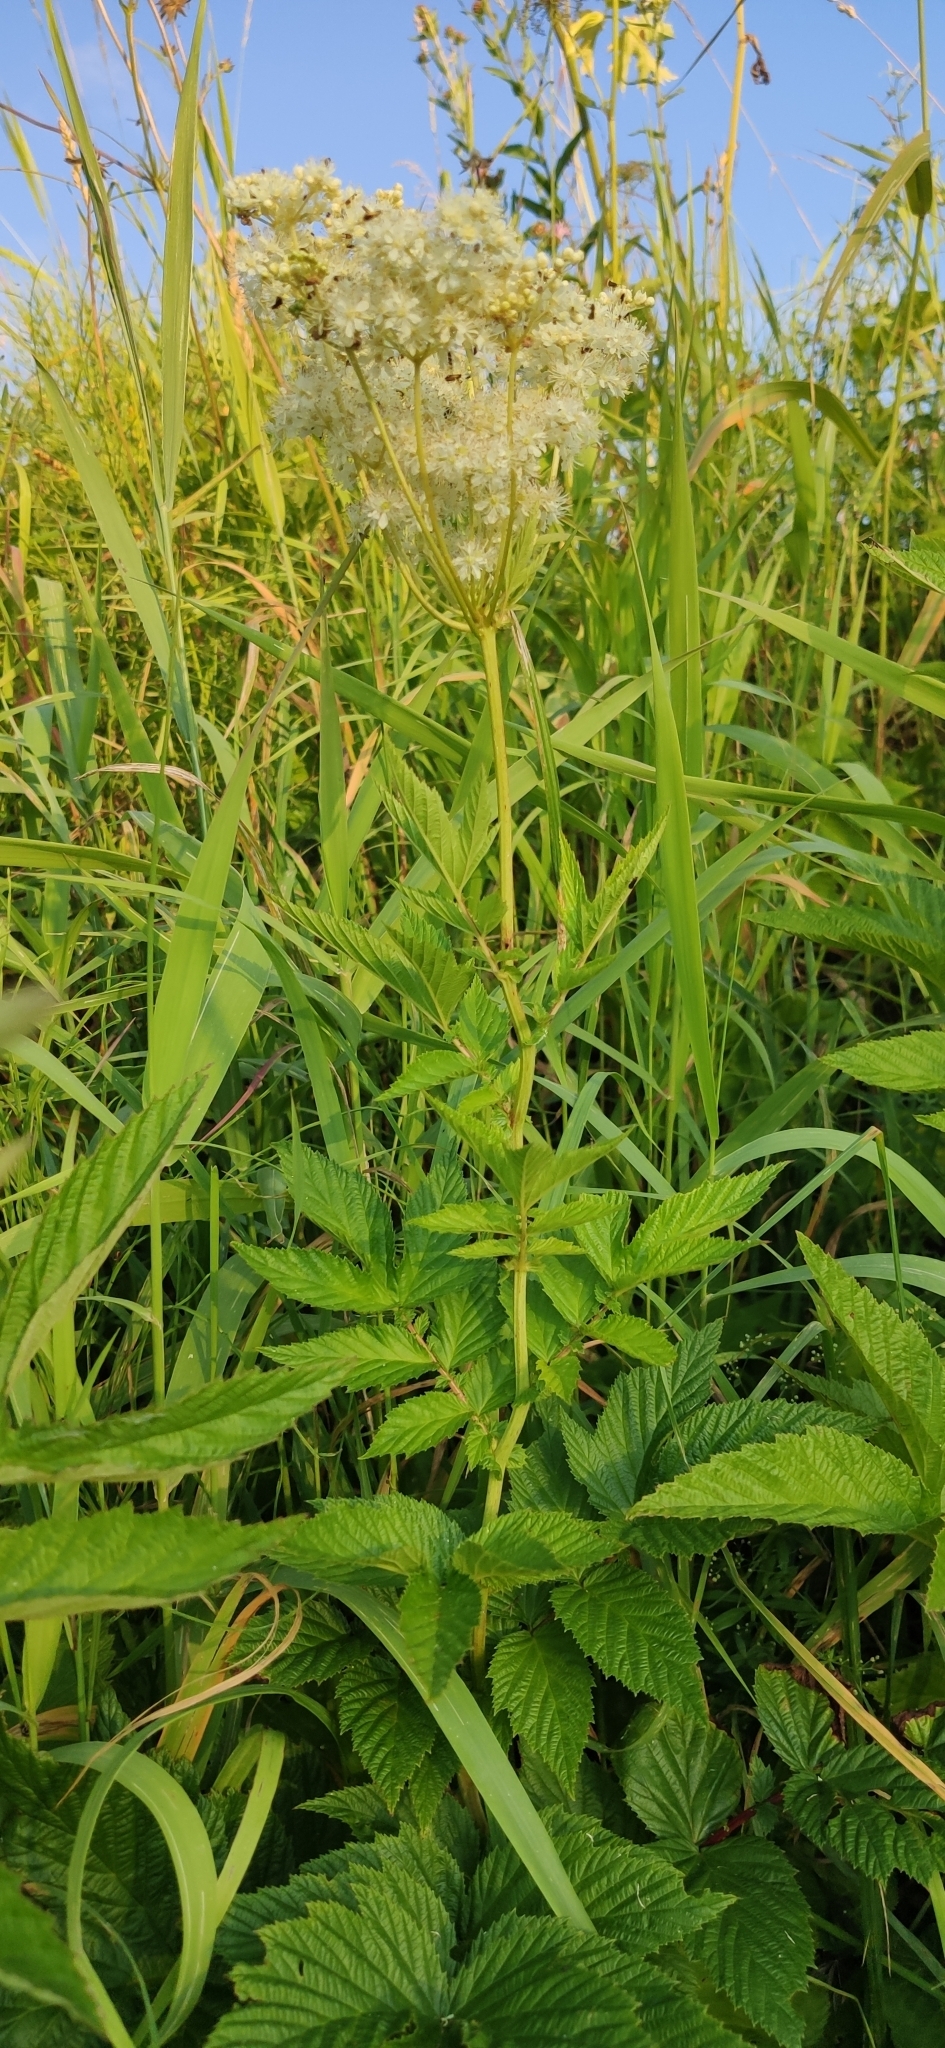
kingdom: Plantae
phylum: Tracheophyta
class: Magnoliopsida
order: Rosales
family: Rosaceae
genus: Filipendula
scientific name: Filipendula ulmaria
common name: Meadowsweet
